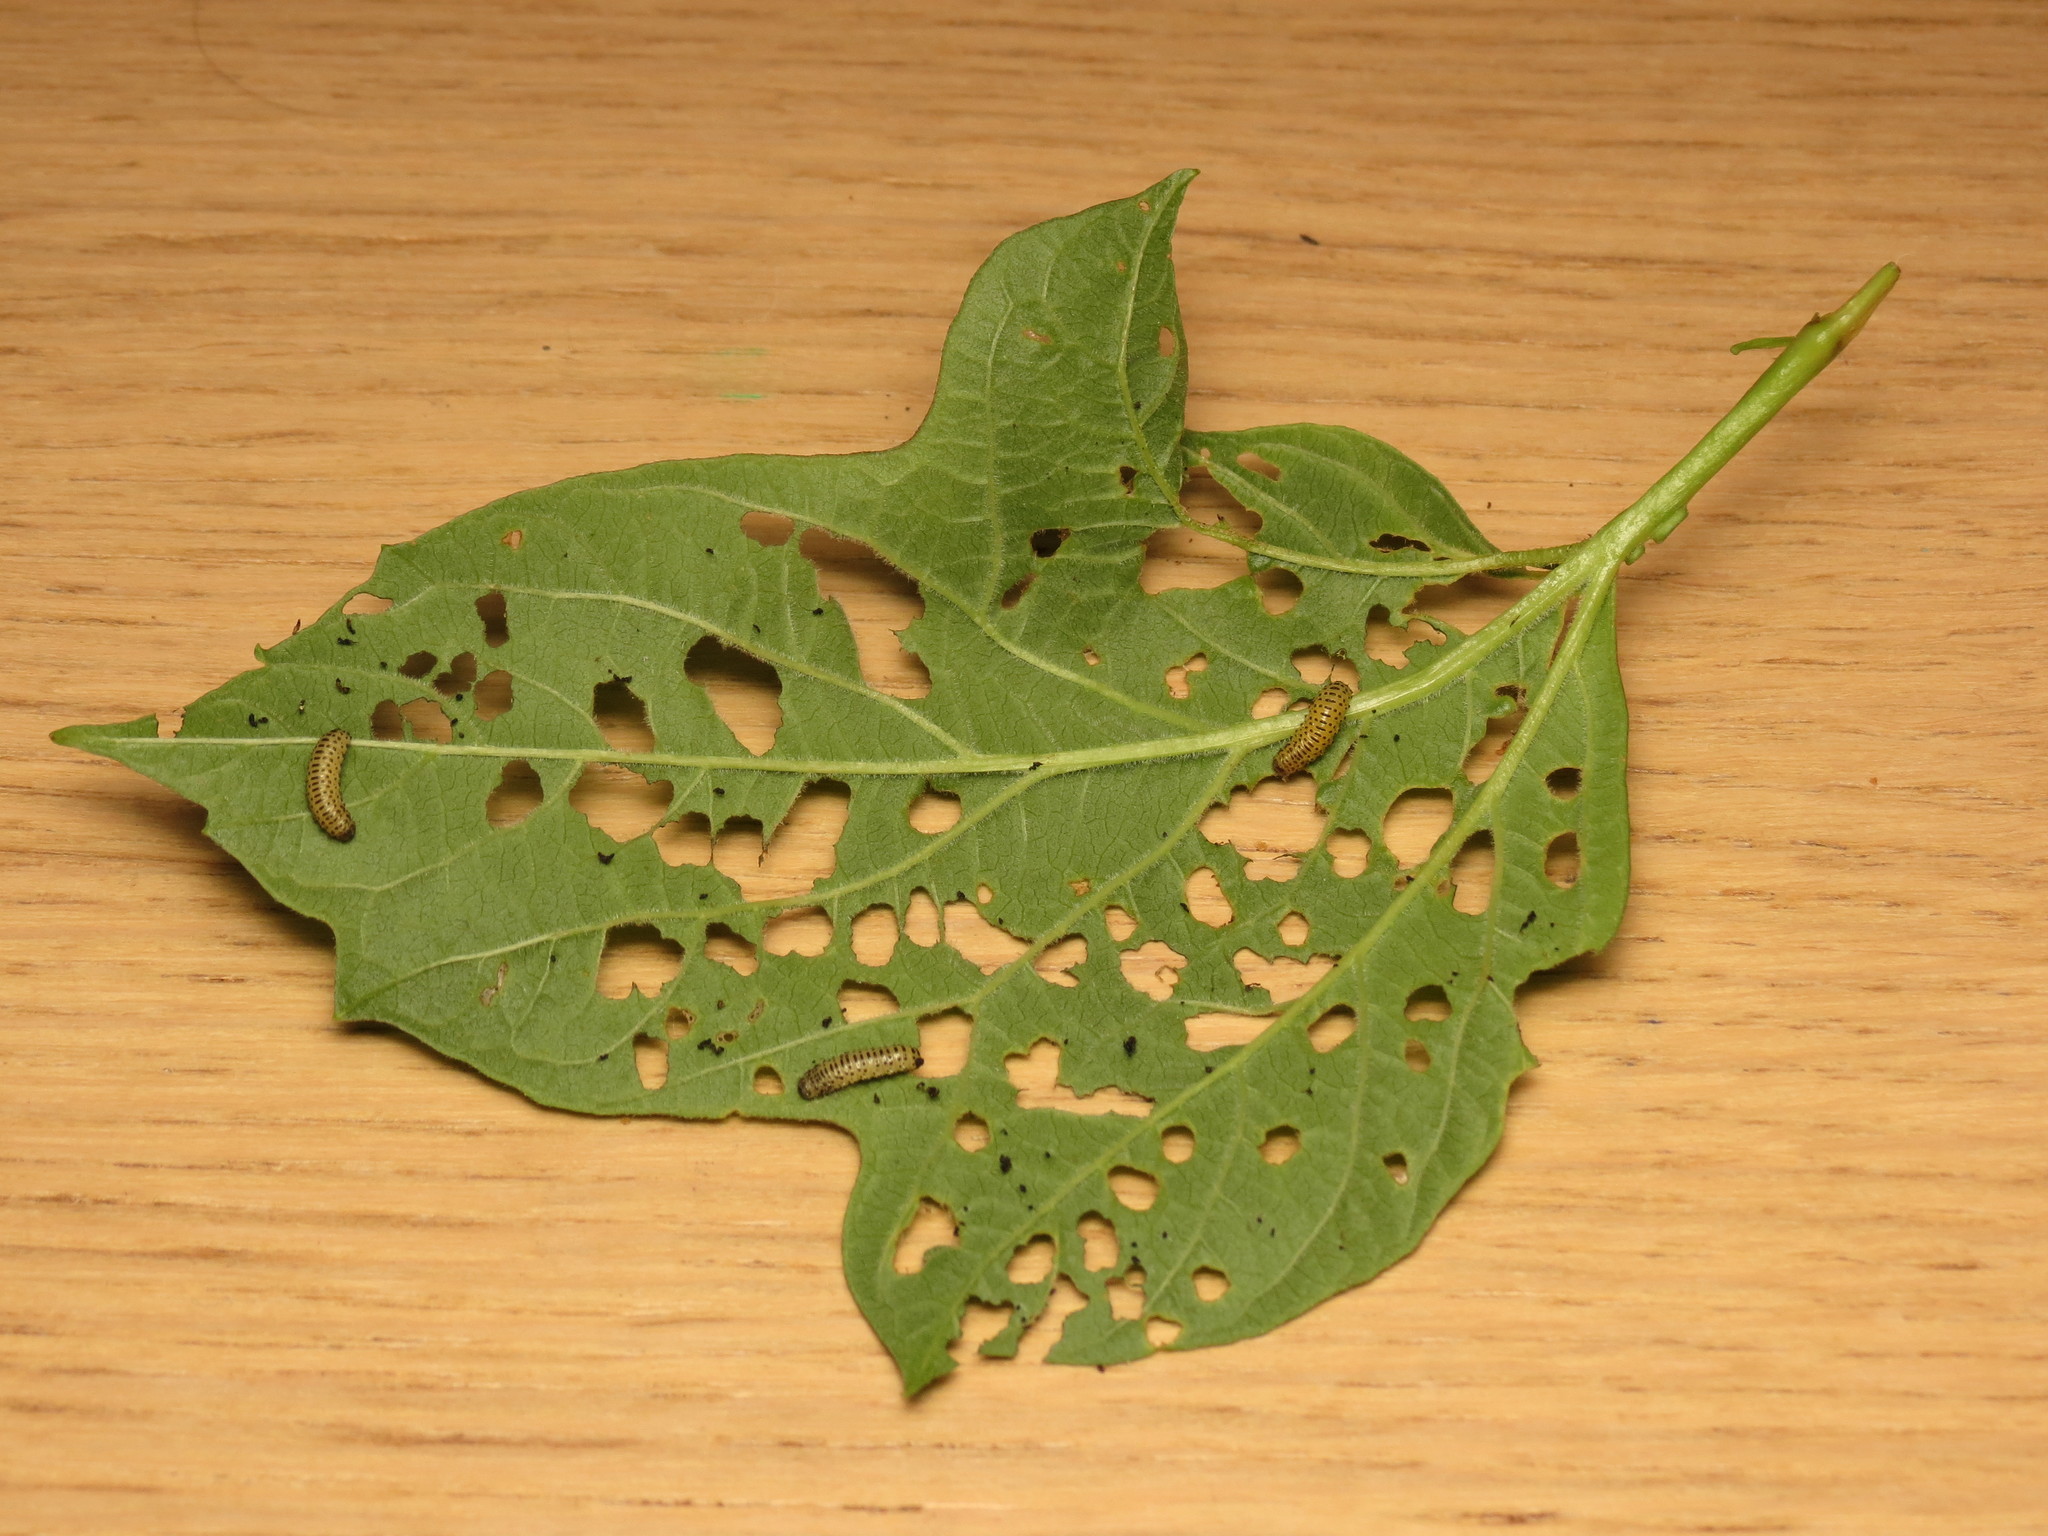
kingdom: Animalia
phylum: Arthropoda
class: Insecta
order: Coleoptera
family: Chrysomelidae
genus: Pyrrhalta
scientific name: Pyrrhalta viburni
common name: Guelder-rose leaf beetle
